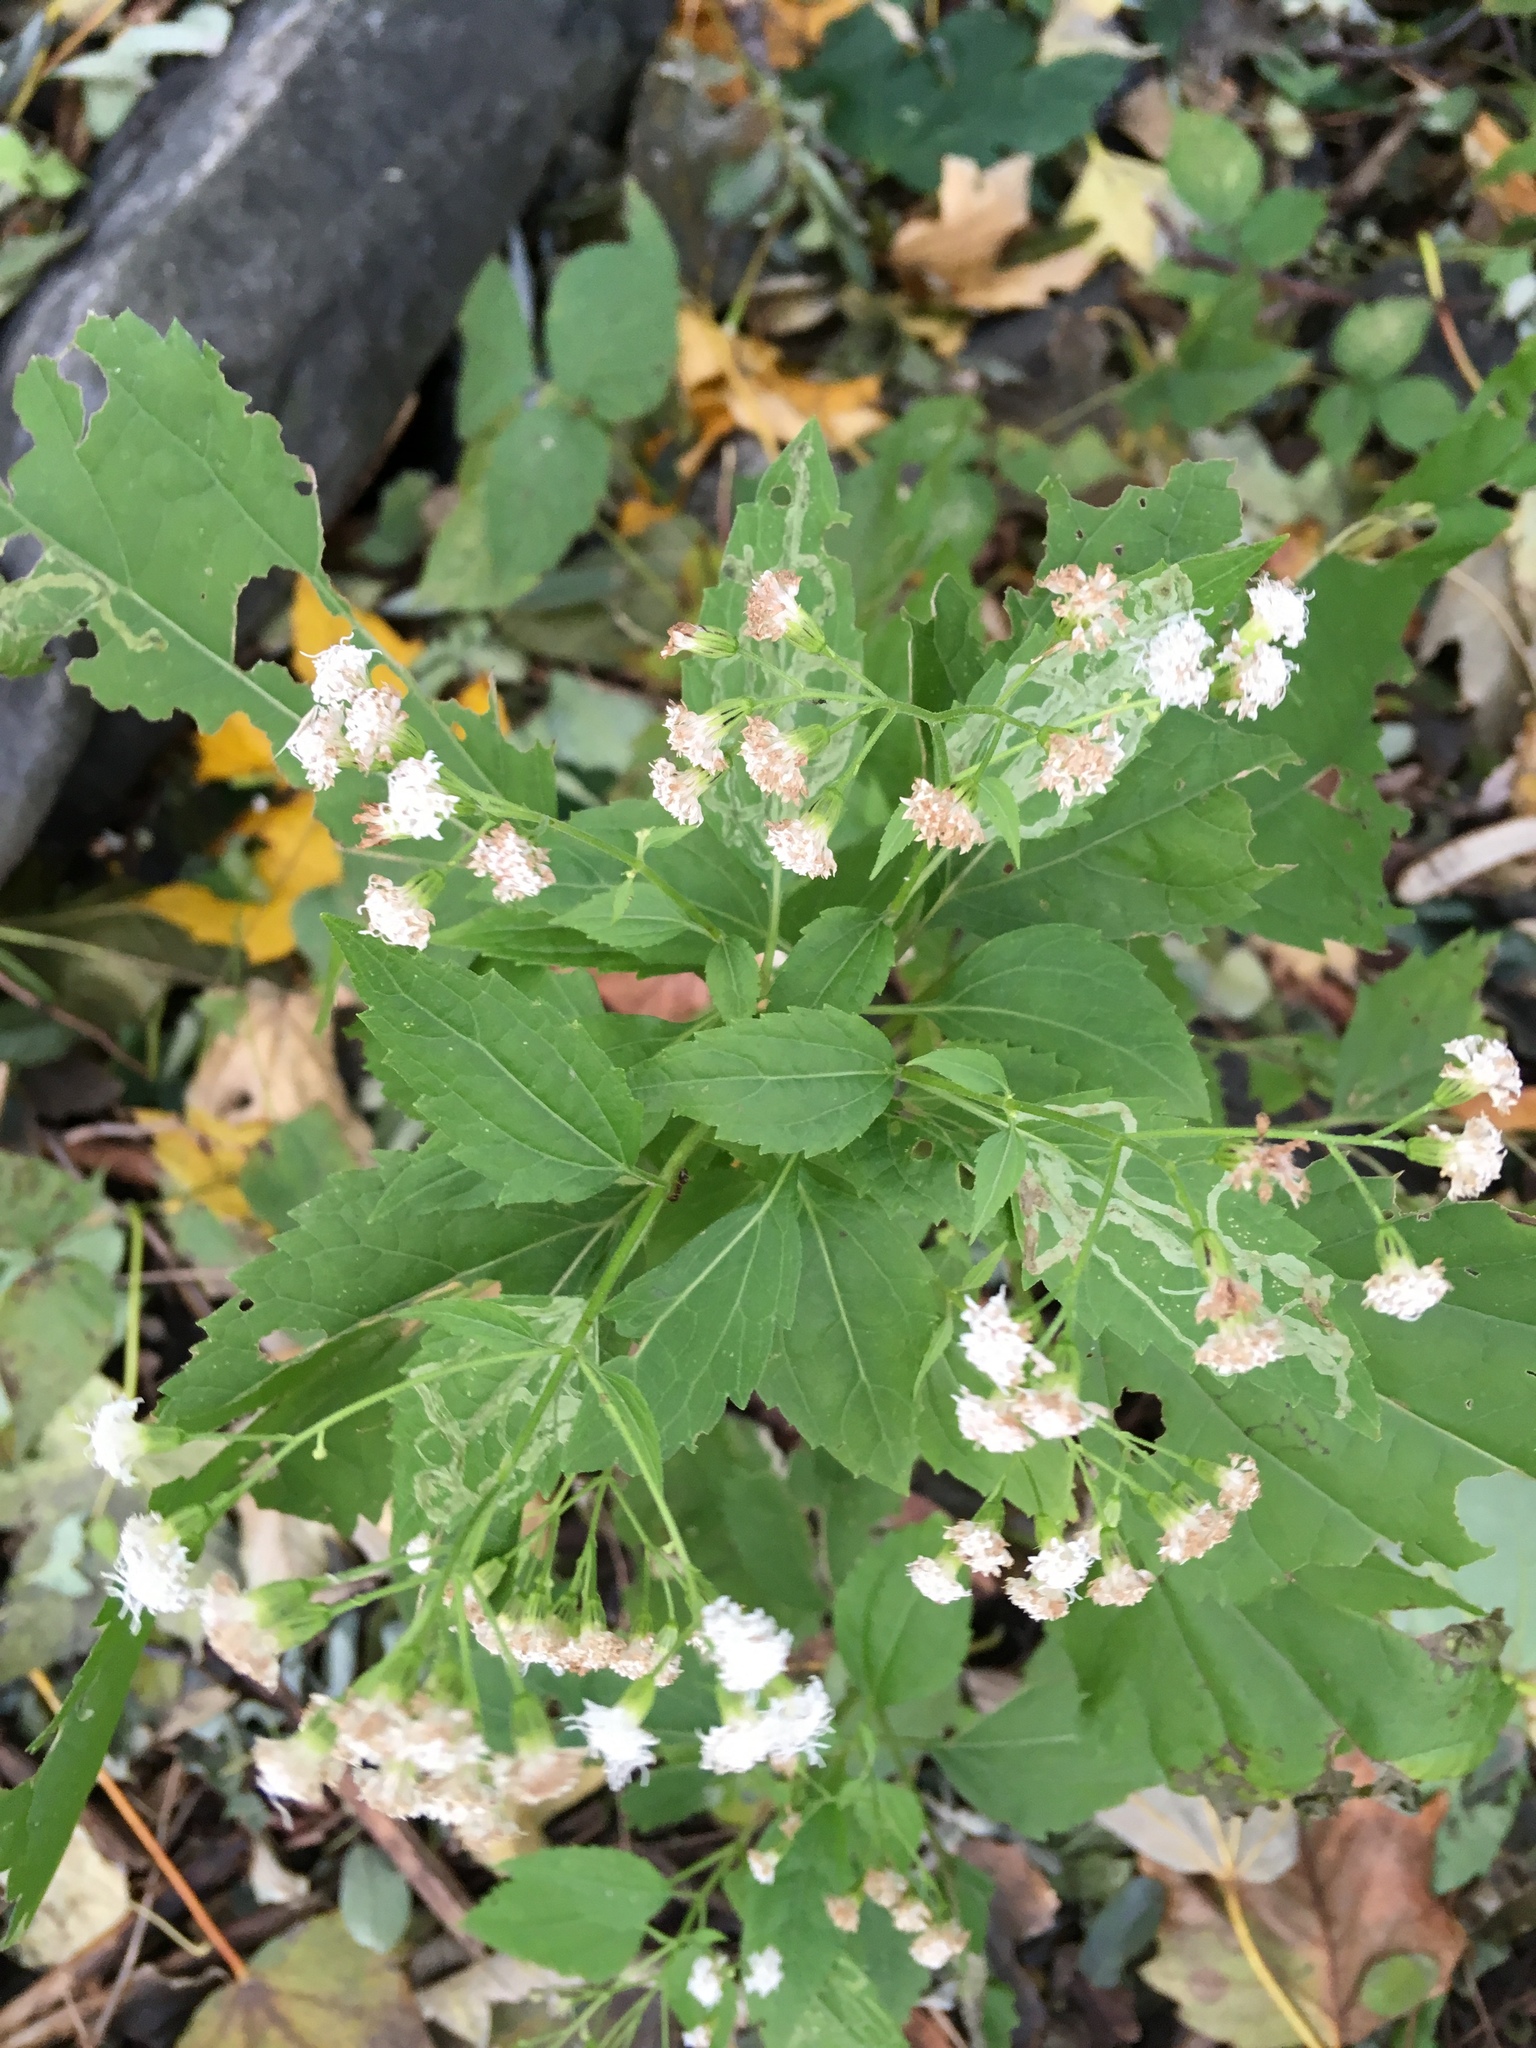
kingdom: Plantae
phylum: Tracheophyta
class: Magnoliopsida
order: Asterales
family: Asteraceae
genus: Ageratina
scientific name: Ageratina altissima
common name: White snakeroot
